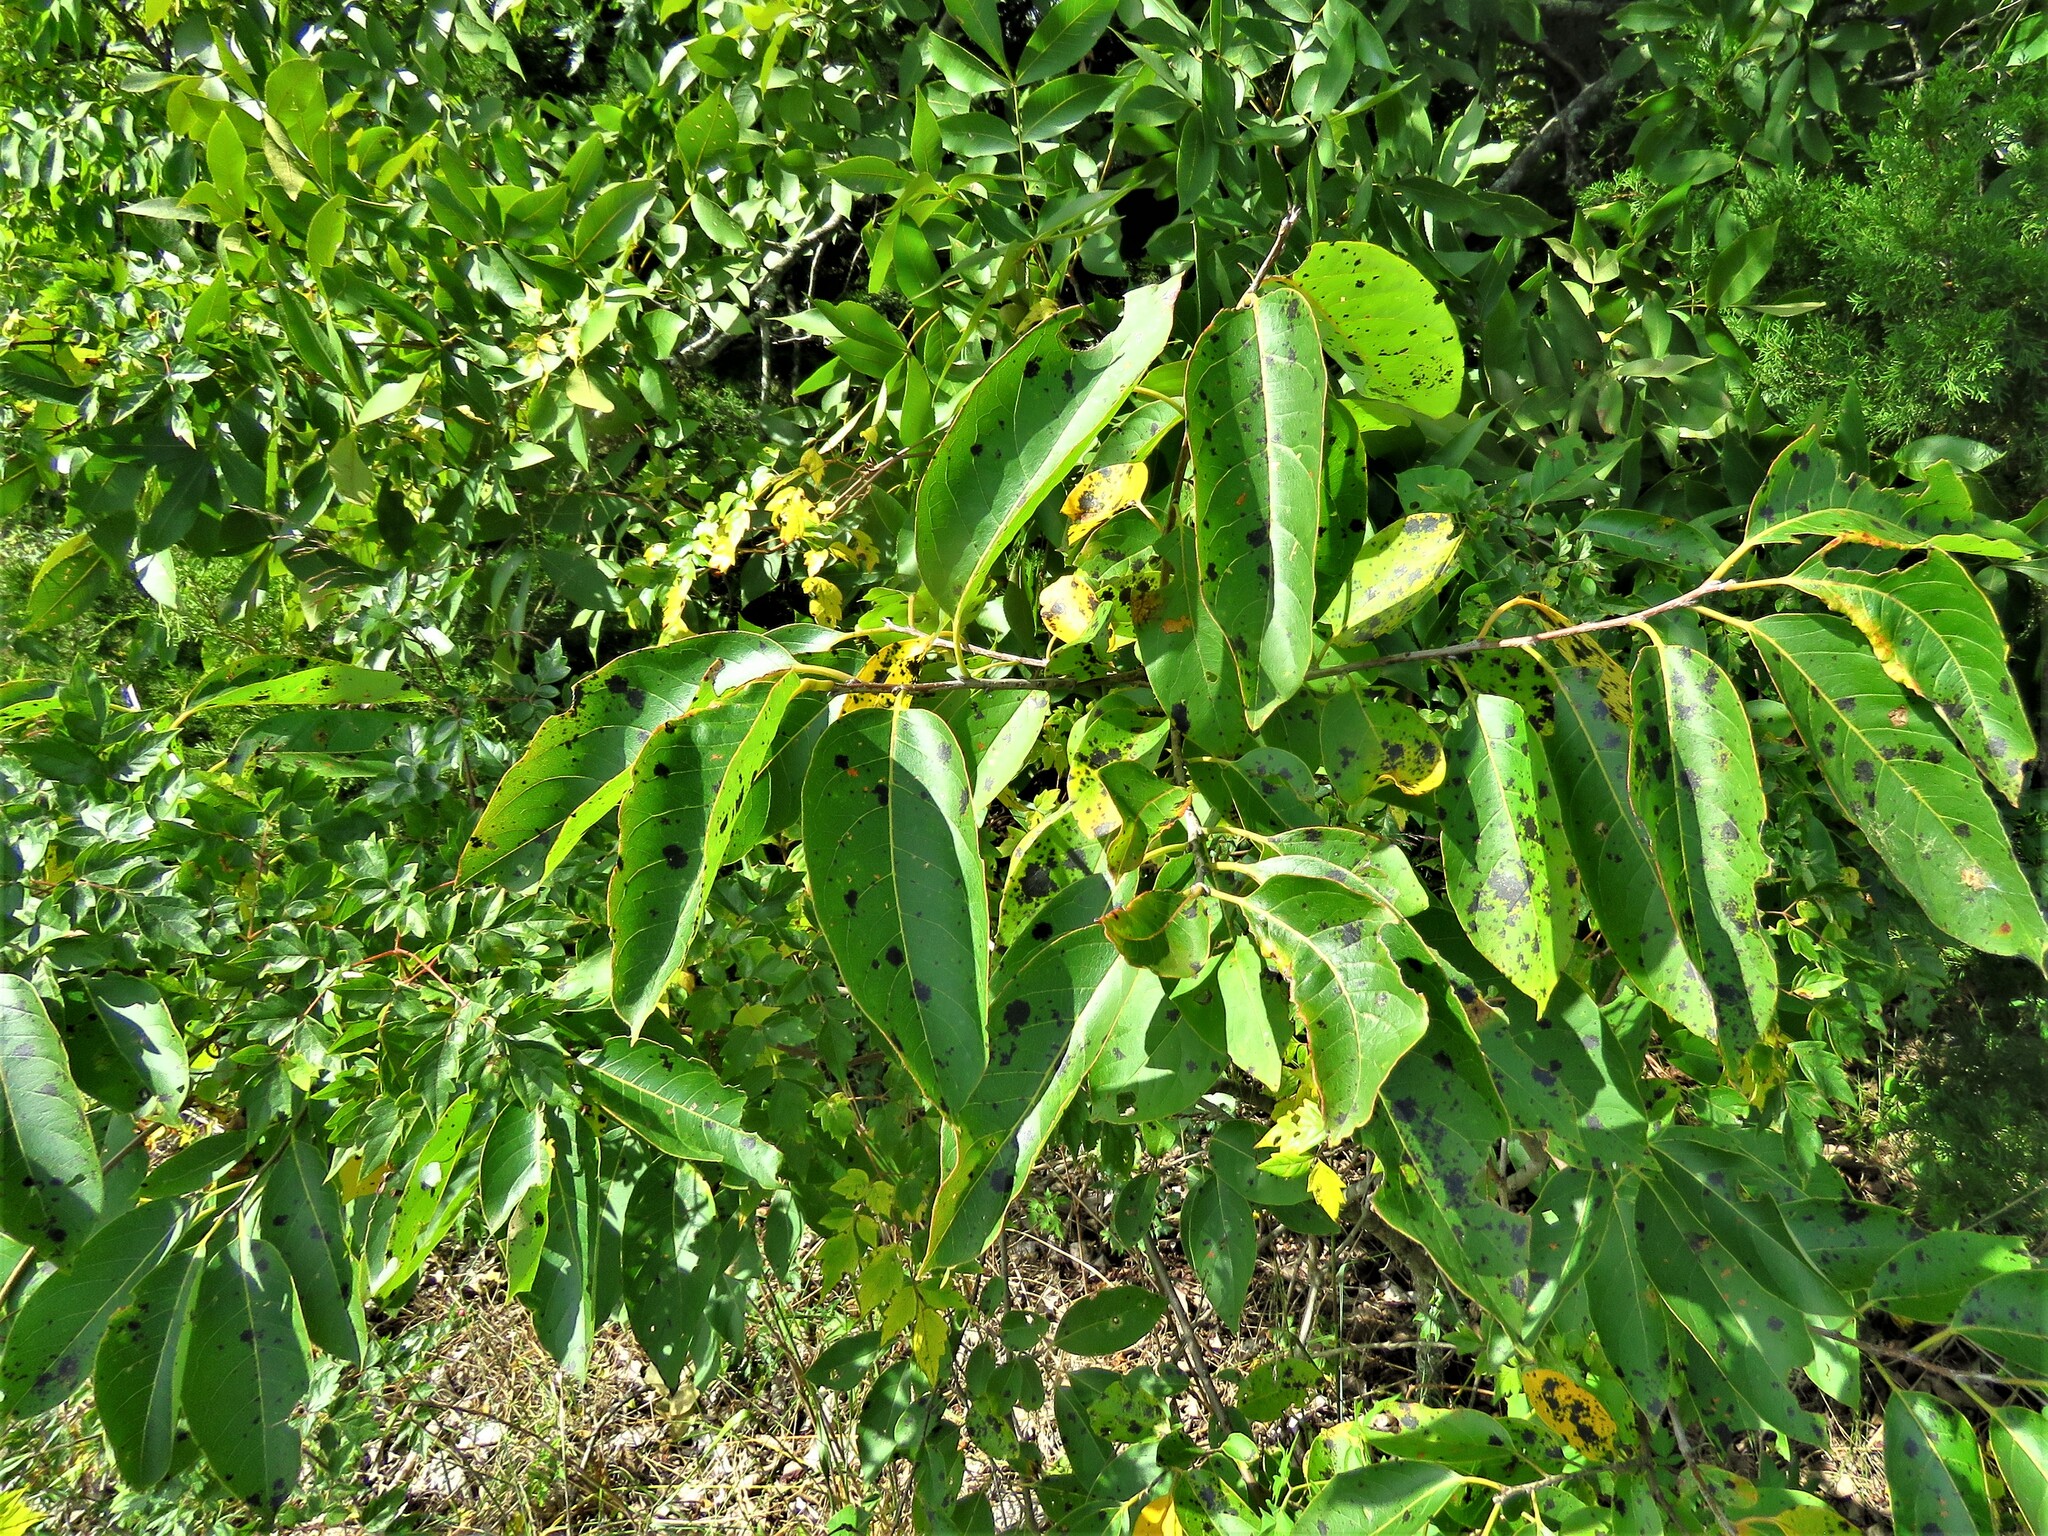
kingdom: Plantae
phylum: Tracheophyta
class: Magnoliopsida
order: Ericales
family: Ebenaceae
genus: Diospyros
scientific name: Diospyros virginiana
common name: Persimmon
